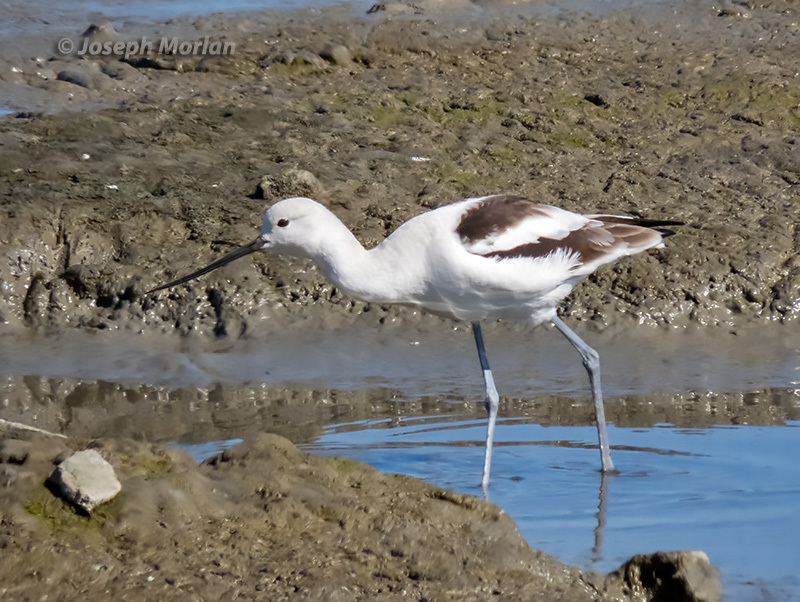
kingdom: Animalia
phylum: Chordata
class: Aves
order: Charadriiformes
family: Recurvirostridae
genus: Recurvirostra
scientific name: Recurvirostra americana
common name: American avocet
